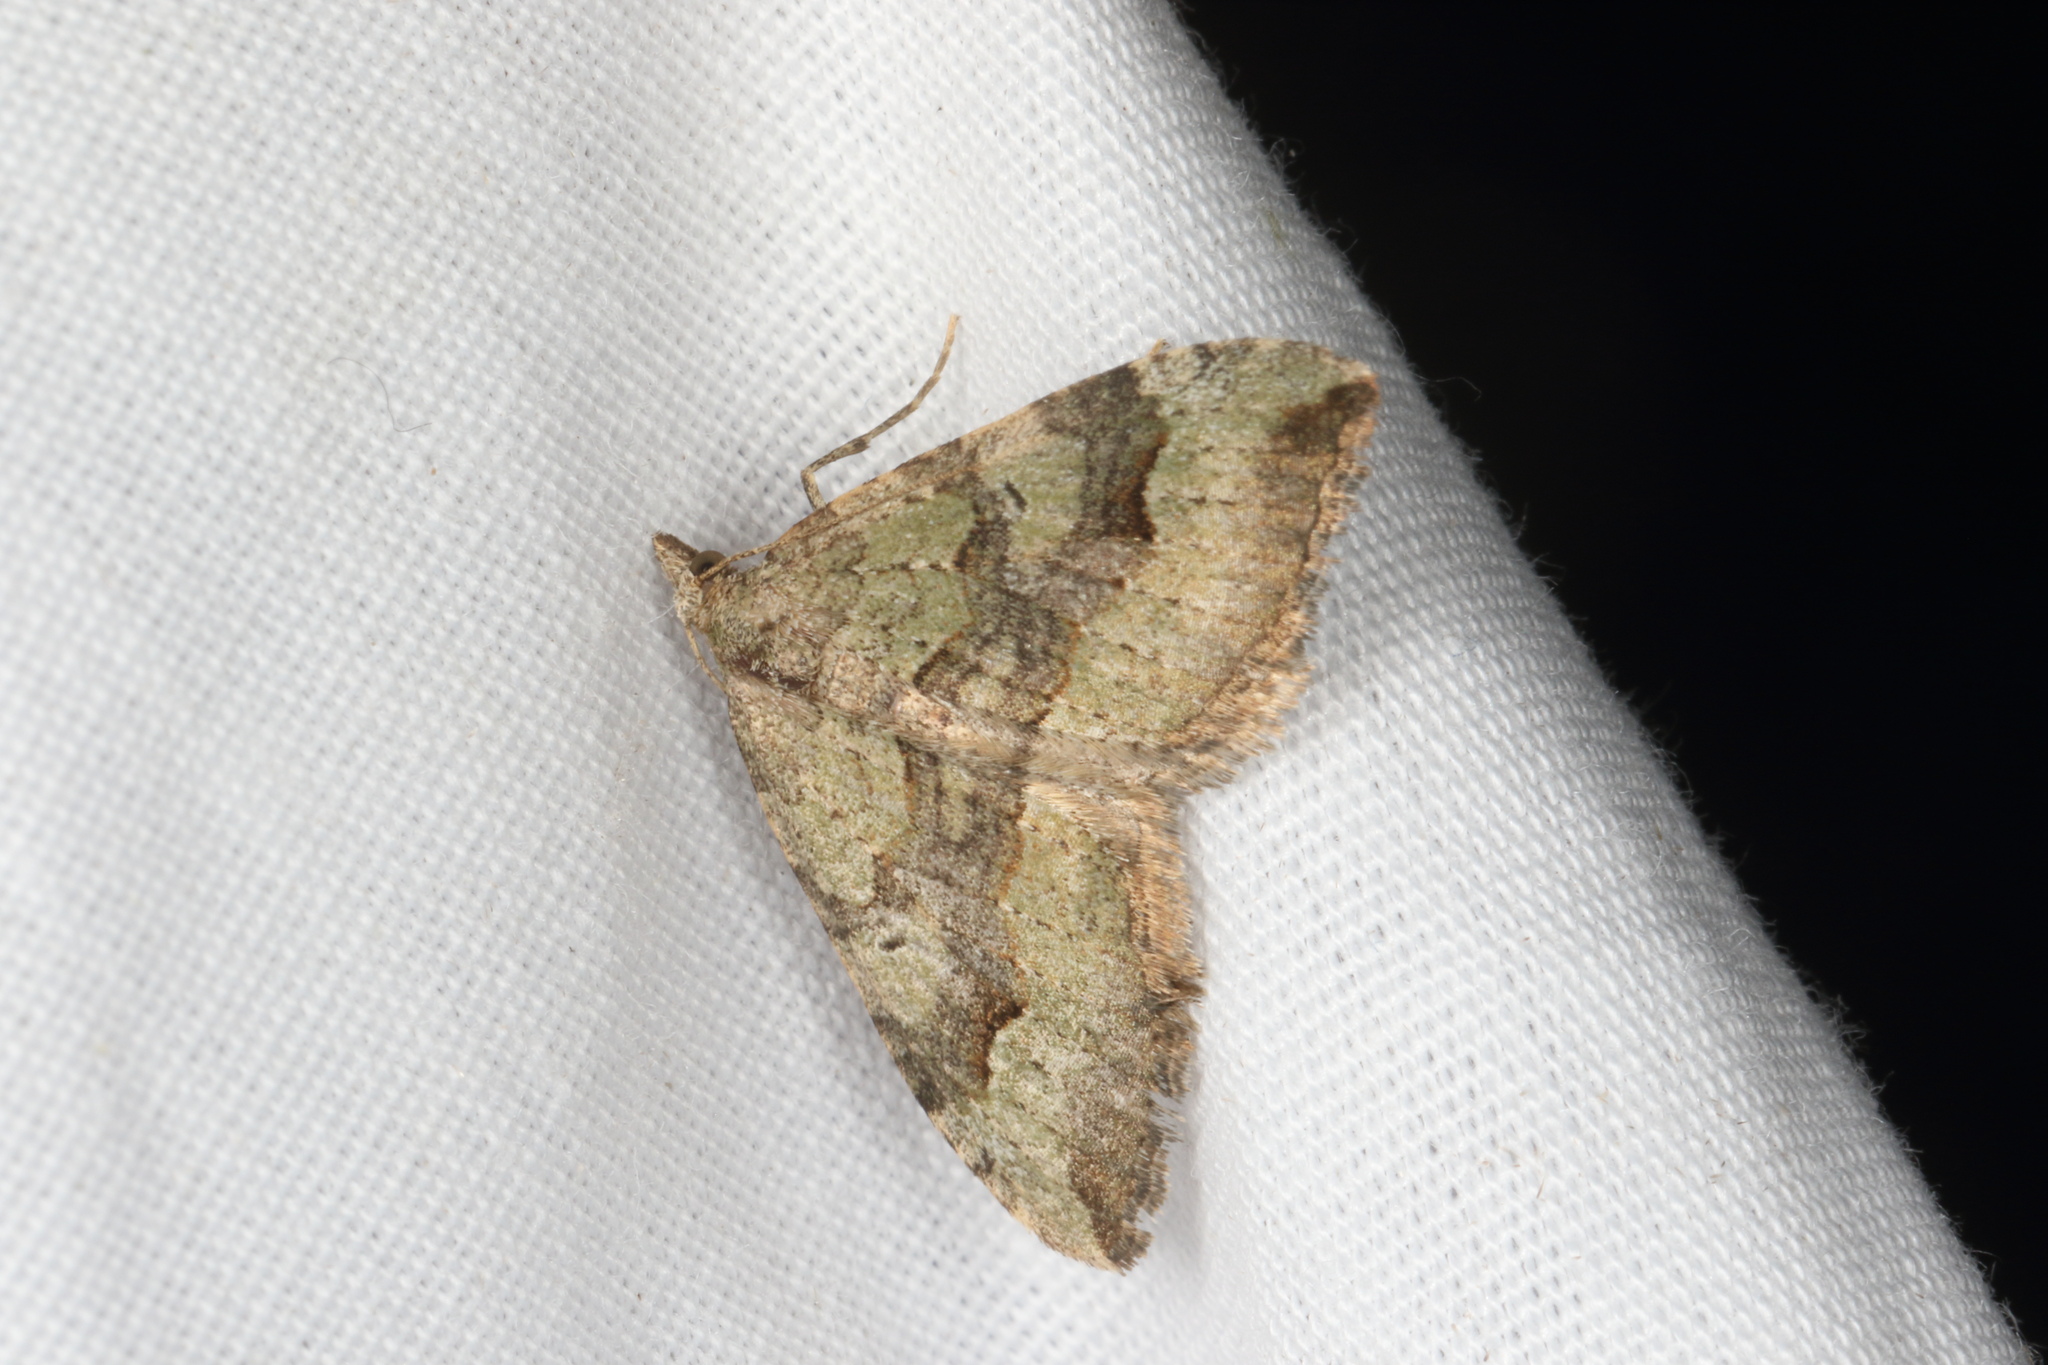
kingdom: Animalia
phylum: Arthropoda
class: Insecta
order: Lepidoptera
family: Geometridae
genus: Epyaxa
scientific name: Epyaxa rosearia
